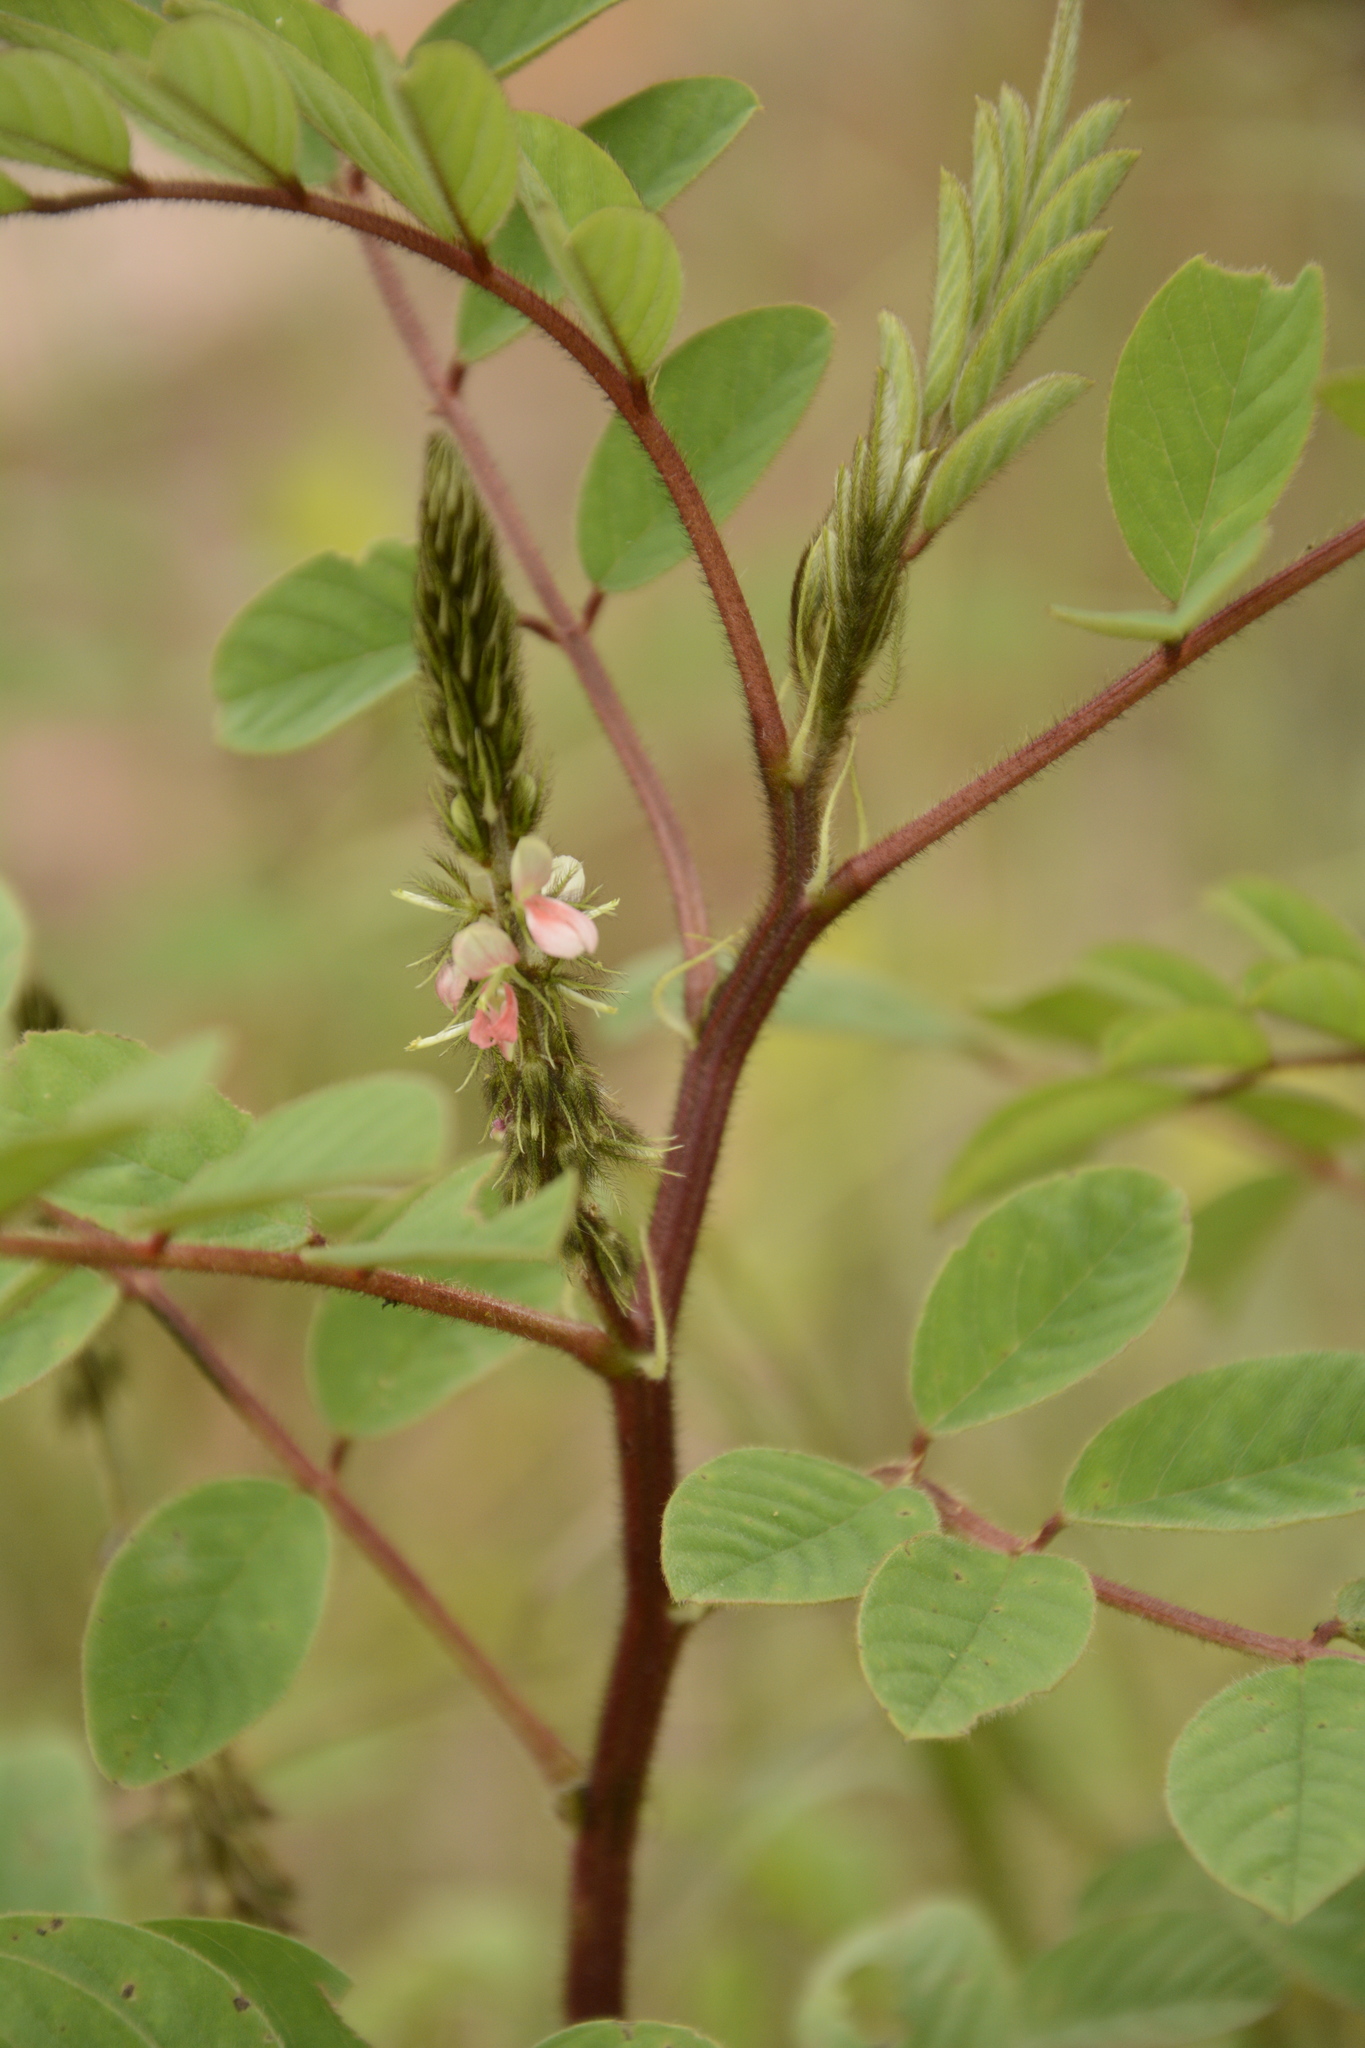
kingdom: Plantae
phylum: Tracheophyta
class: Magnoliopsida
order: Fabales
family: Fabaceae
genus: Indigofera
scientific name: Indigofera hirsuta
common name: Hairy indigo
